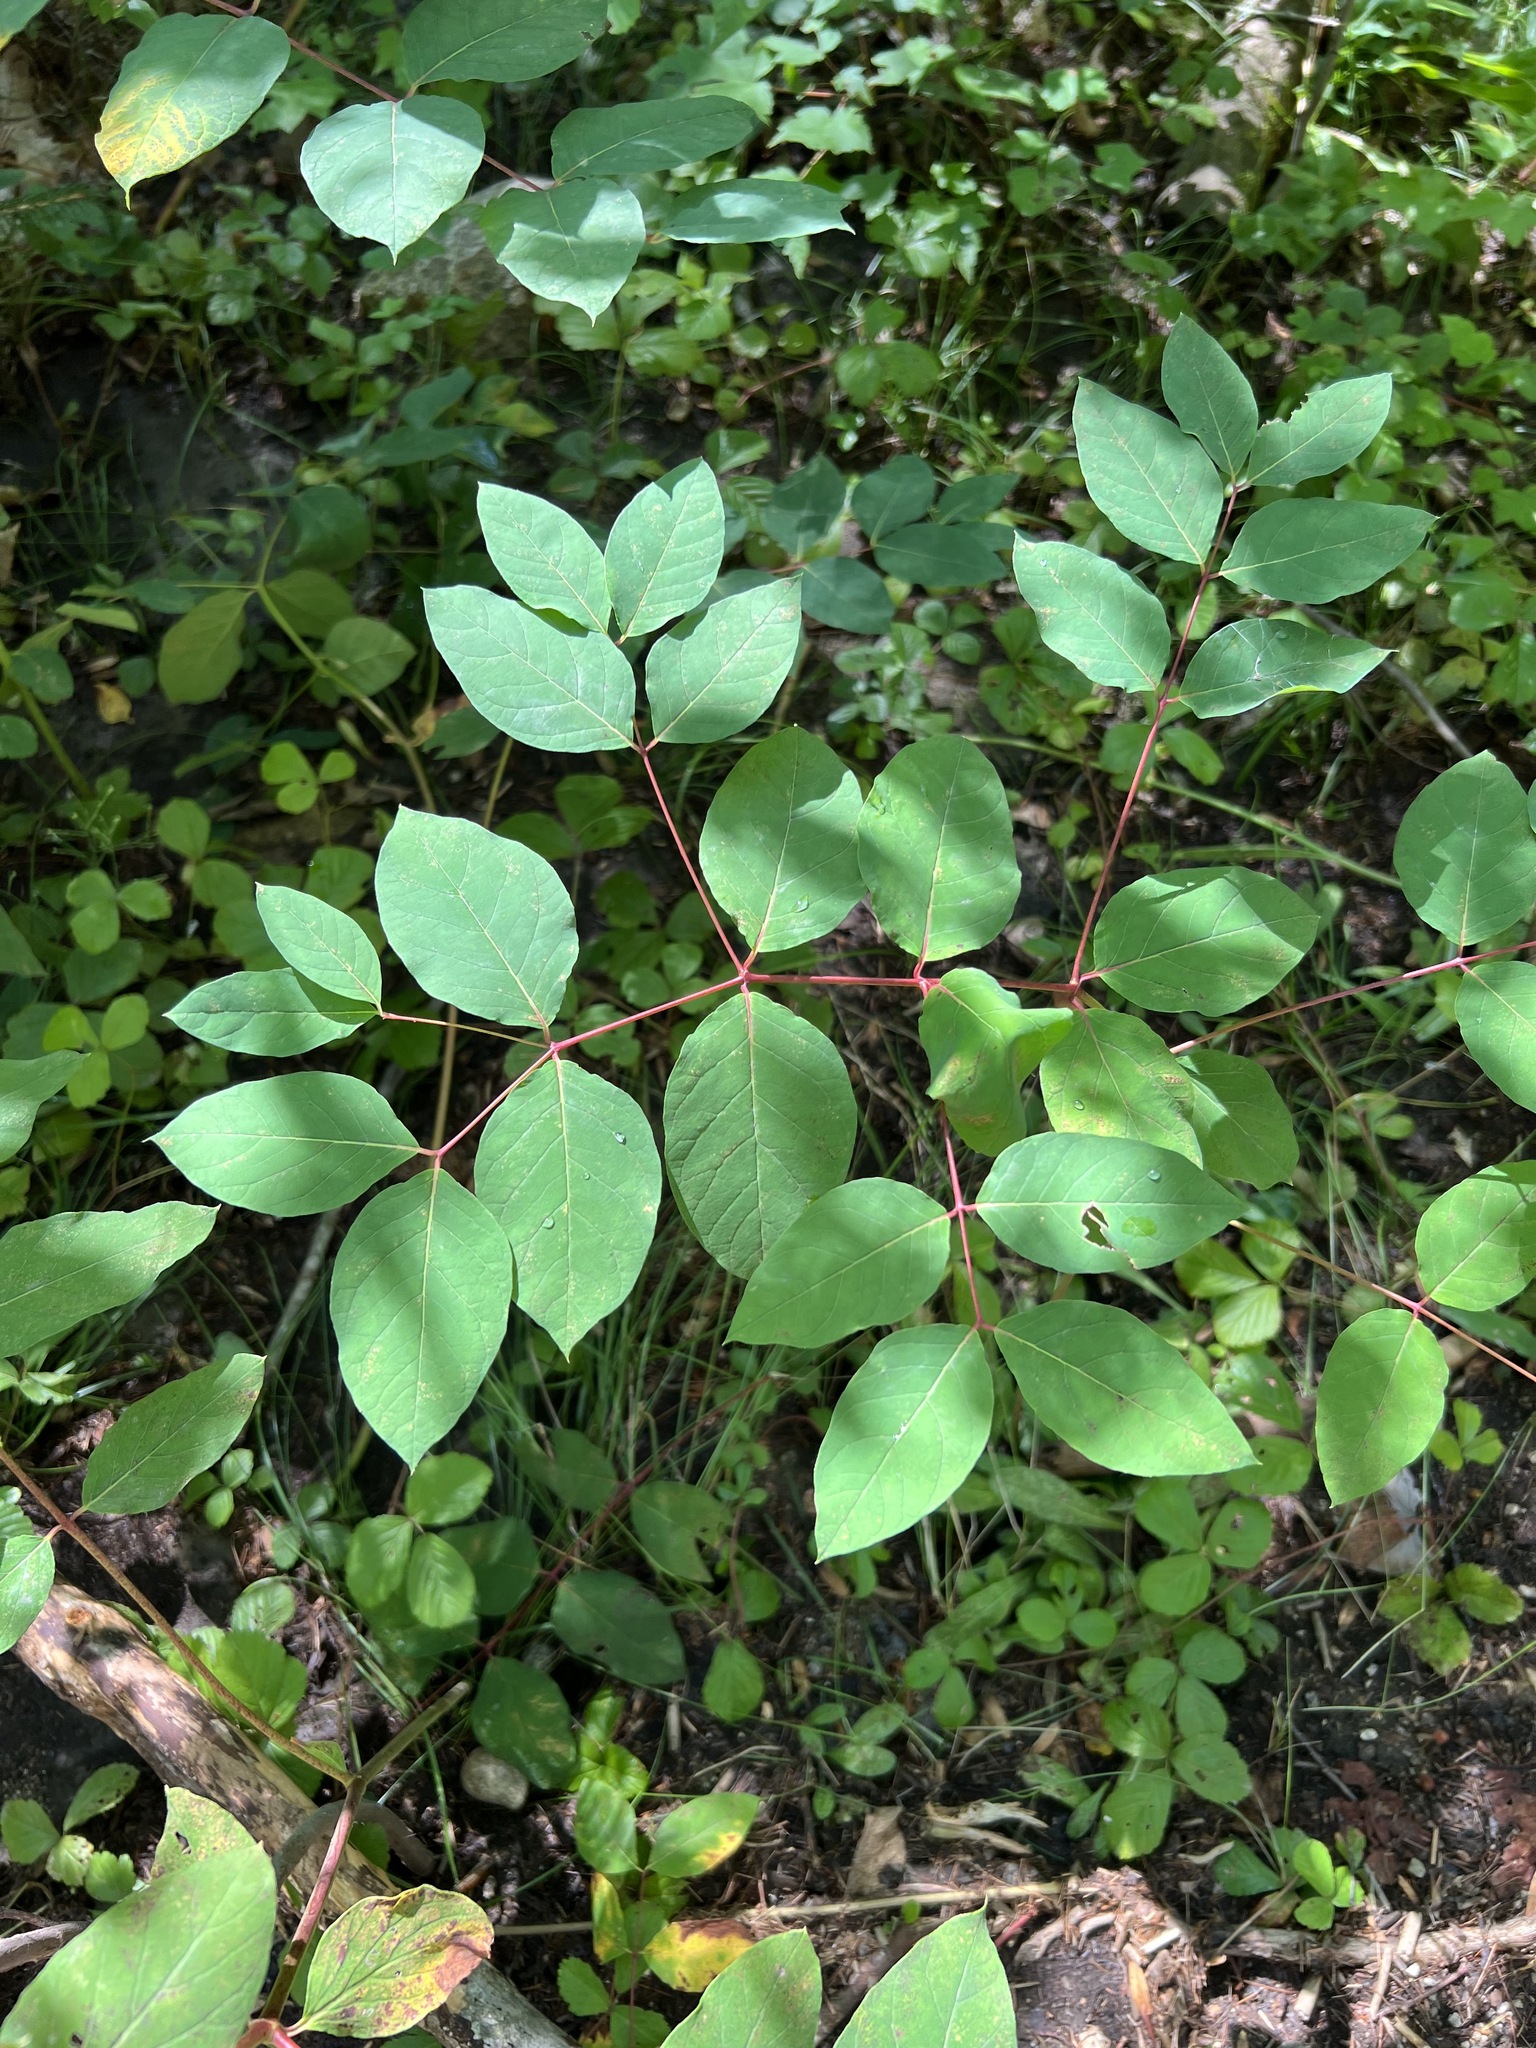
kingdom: Plantae
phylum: Tracheophyta
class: Magnoliopsida
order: Gentianales
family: Apocynaceae
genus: Apocynum
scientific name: Apocynum androsaemifolium
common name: Spreading dogbane
